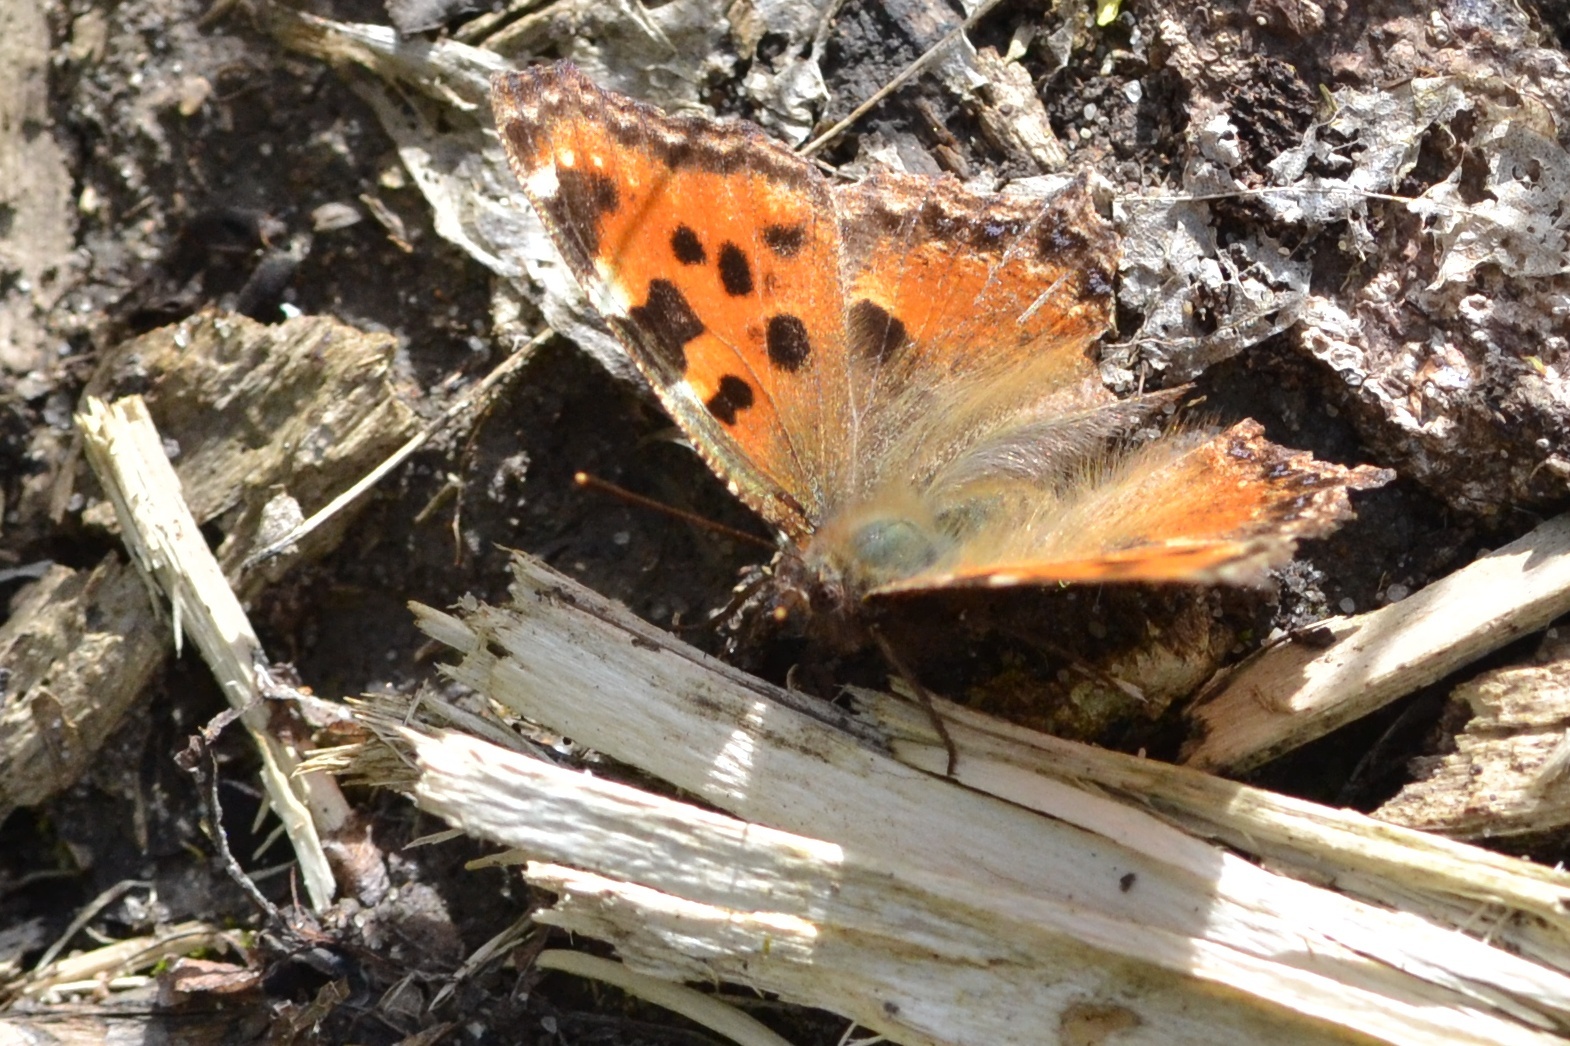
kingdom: Animalia
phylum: Arthropoda
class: Insecta
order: Lepidoptera
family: Nymphalidae
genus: Nymphalis
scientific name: Nymphalis polychloros
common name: Large tortoiseshell
